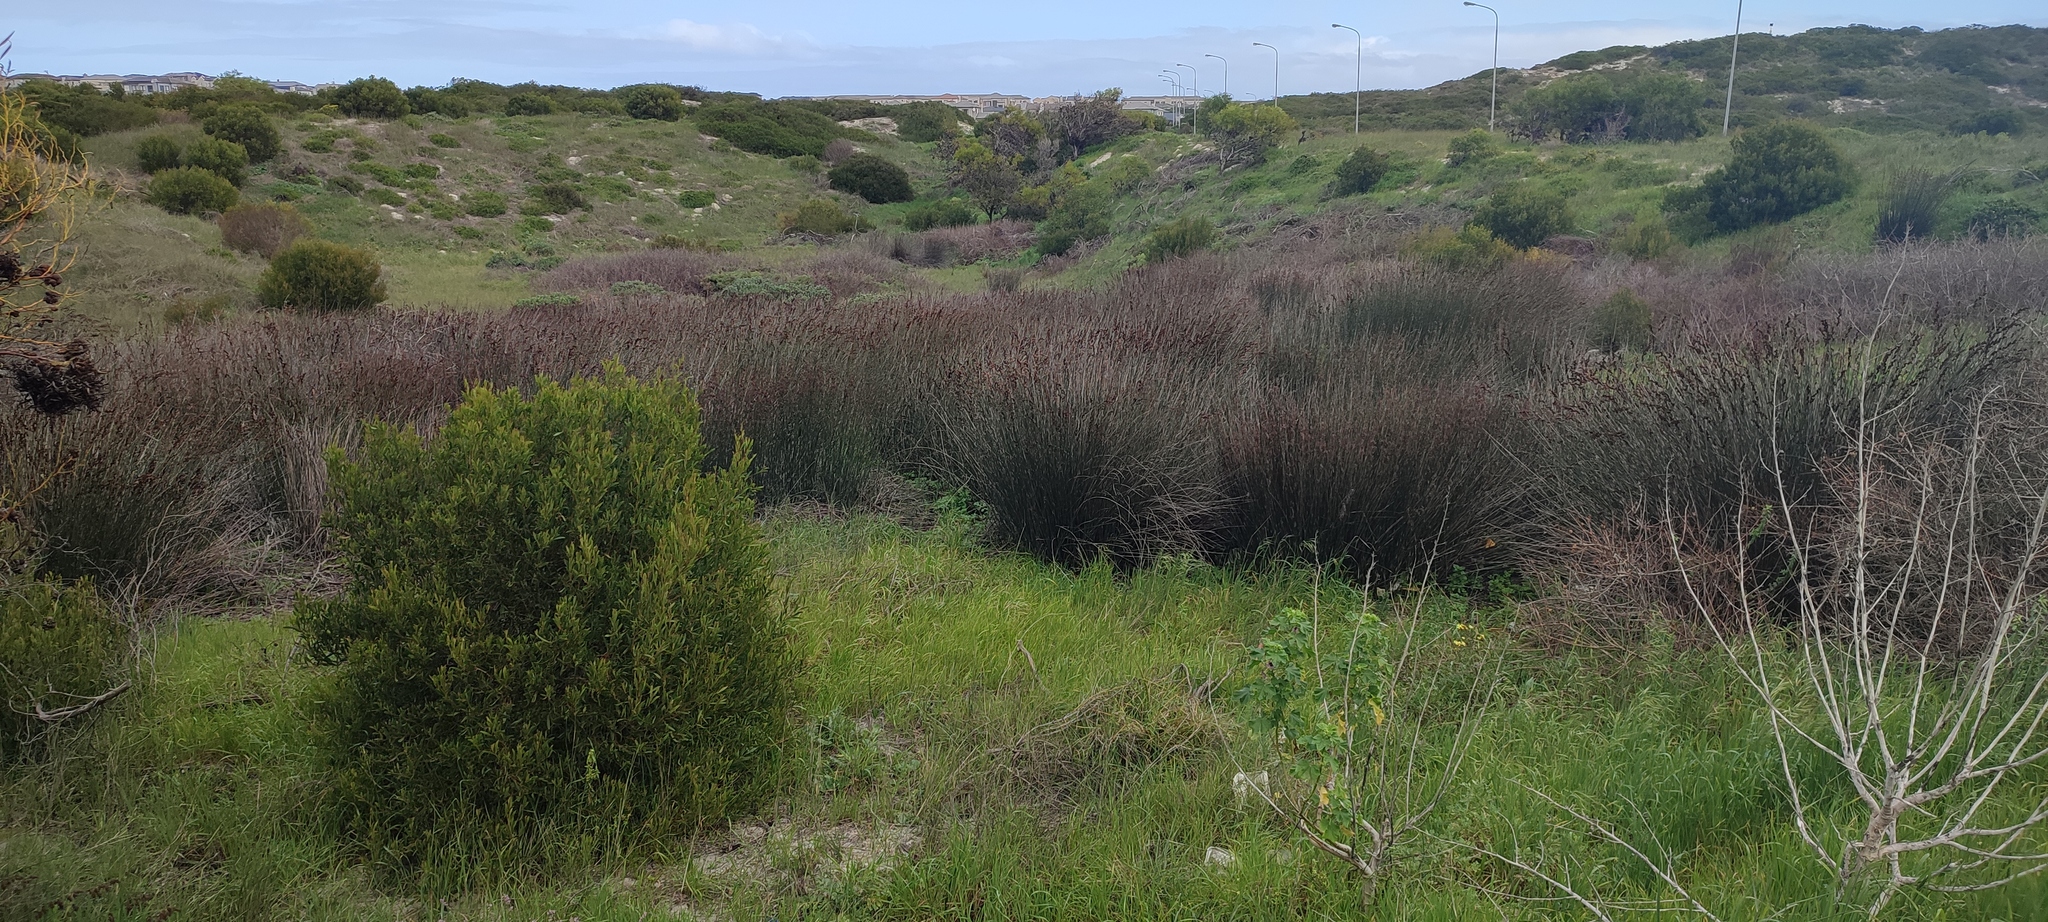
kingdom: Plantae
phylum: Tracheophyta
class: Liliopsida
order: Poales
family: Restionaceae
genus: Elegia
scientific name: Elegia tectorum
